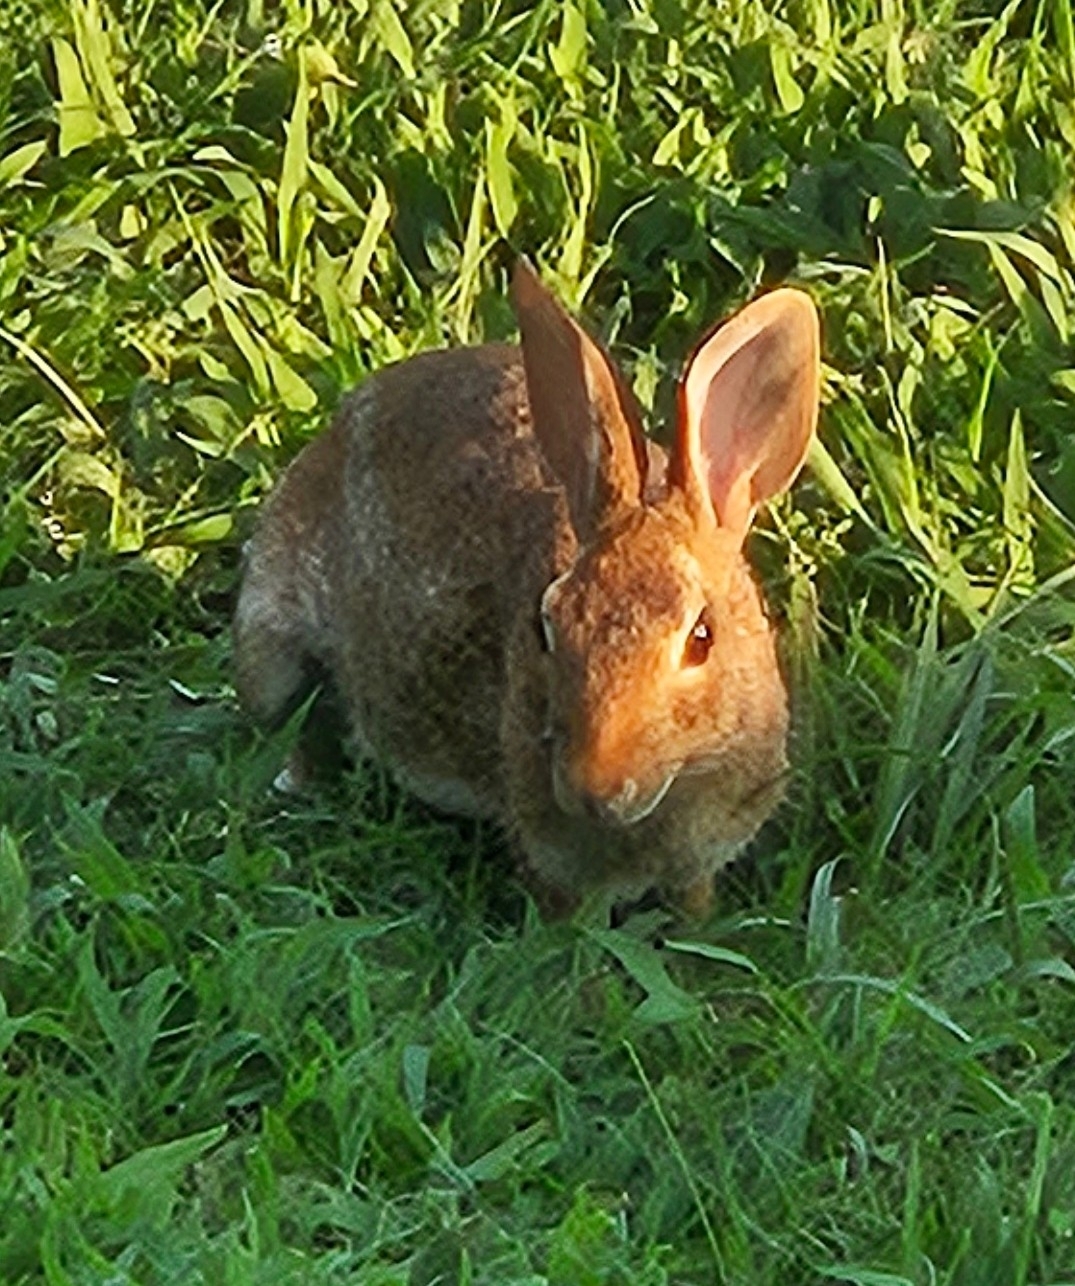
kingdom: Animalia
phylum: Chordata
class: Mammalia
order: Lagomorpha
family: Leporidae
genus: Sylvilagus
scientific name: Sylvilagus floridanus
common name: Eastern cottontail
